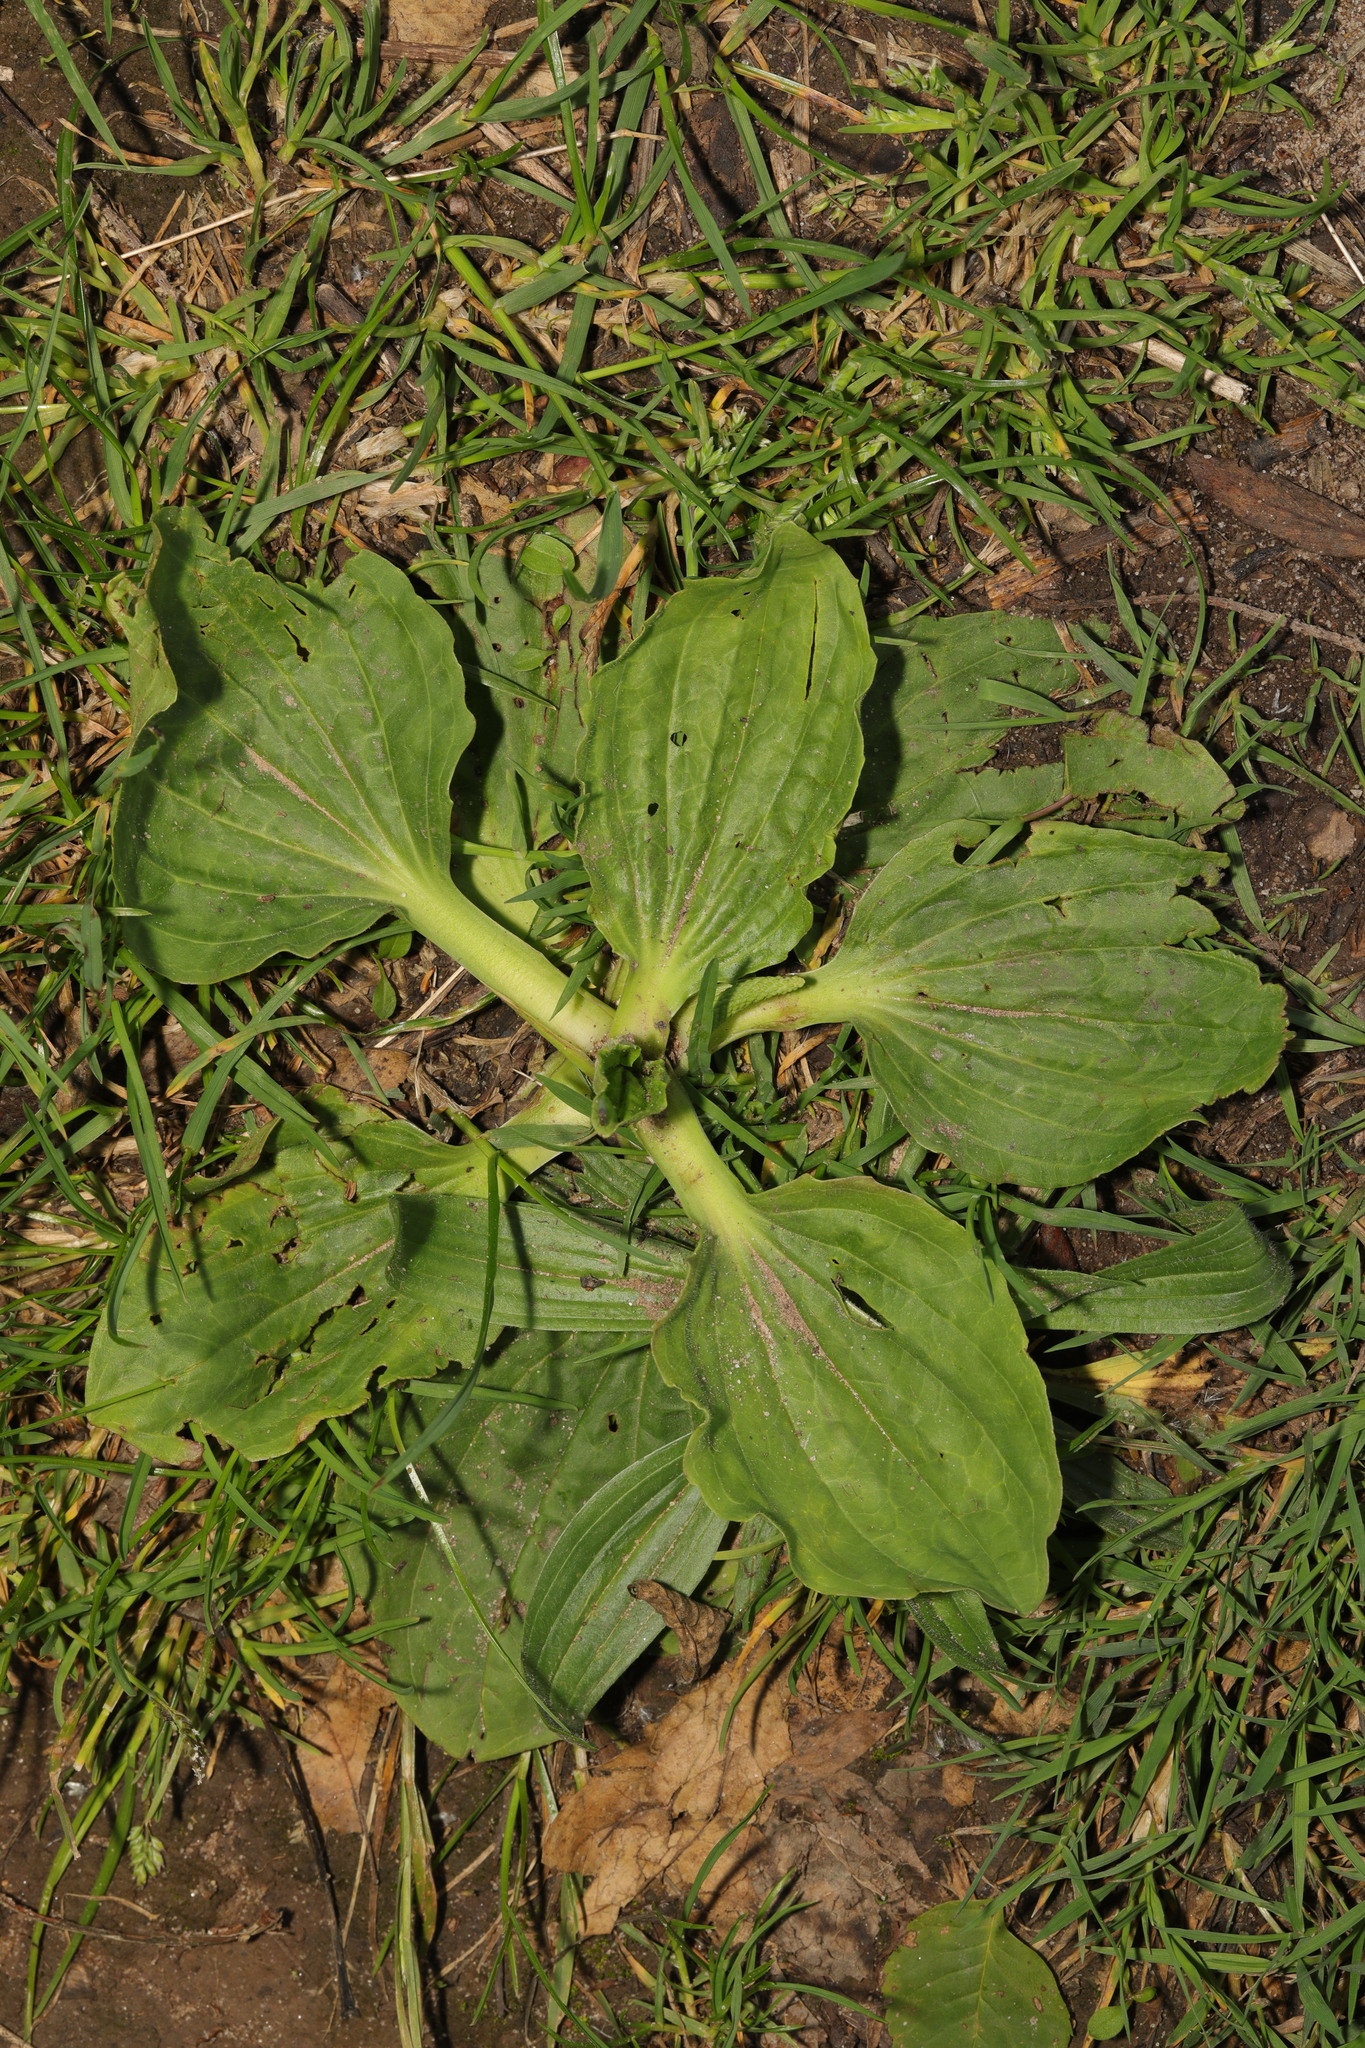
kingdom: Plantae
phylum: Tracheophyta
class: Magnoliopsida
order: Lamiales
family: Plantaginaceae
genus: Plantago
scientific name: Plantago major
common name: Common plantain
